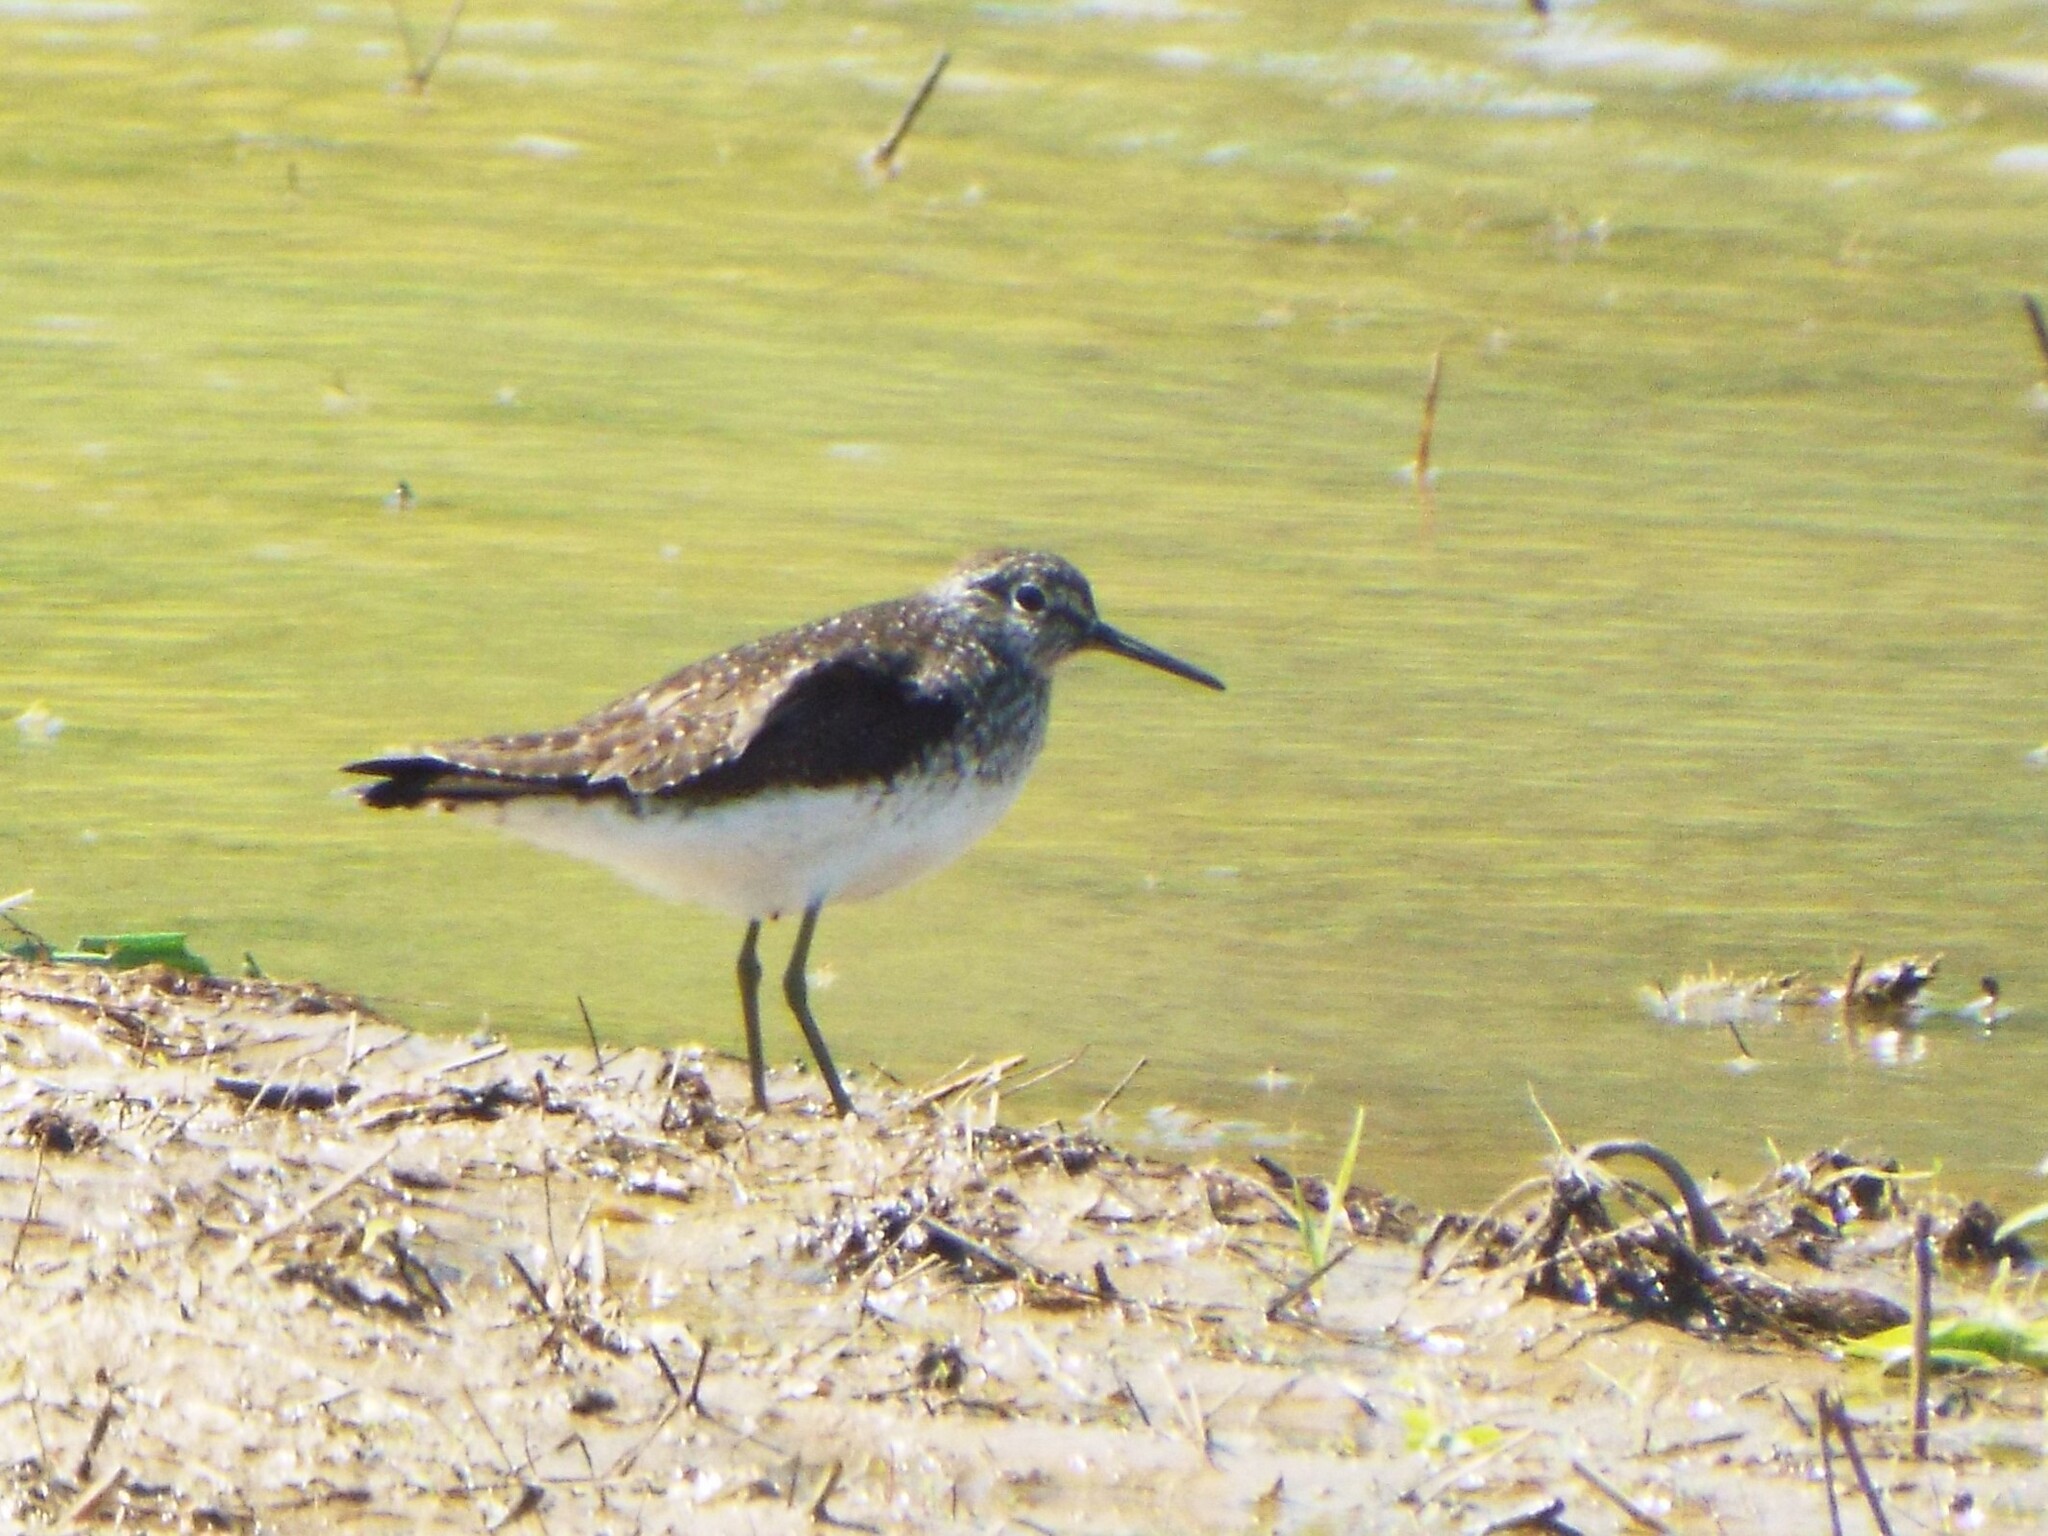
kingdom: Animalia
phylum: Chordata
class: Aves
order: Charadriiformes
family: Scolopacidae
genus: Tringa
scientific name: Tringa solitaria
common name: Solitary sandpiper
